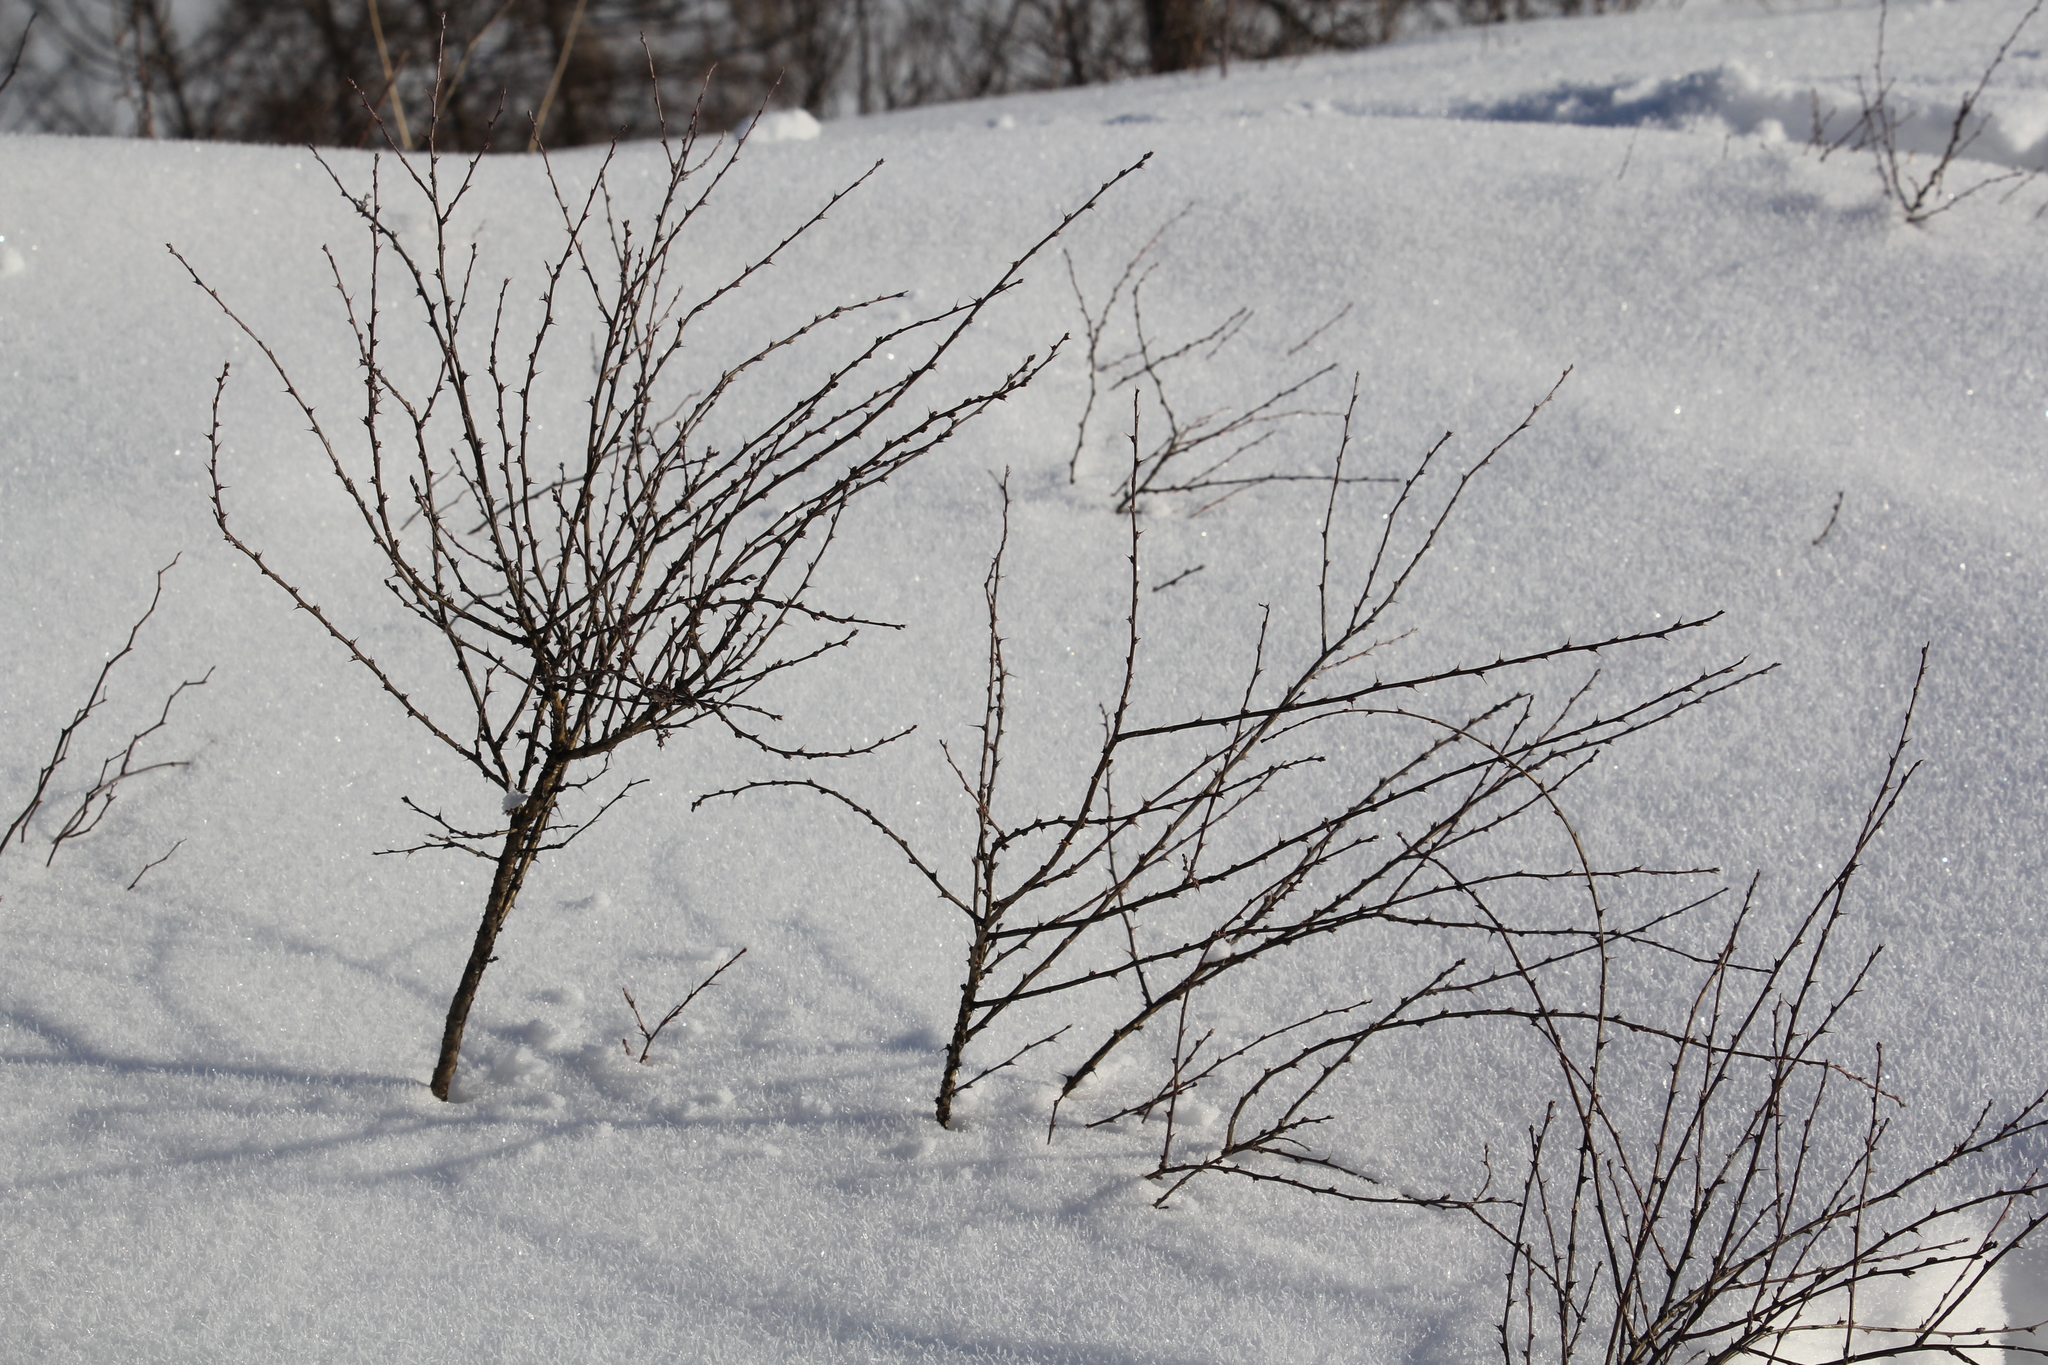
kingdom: Plantae
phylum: Tracheophyta
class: Magnoliopsida
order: Fabales
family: Fabaceae
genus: Caragana
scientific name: Caragana pygmaea
